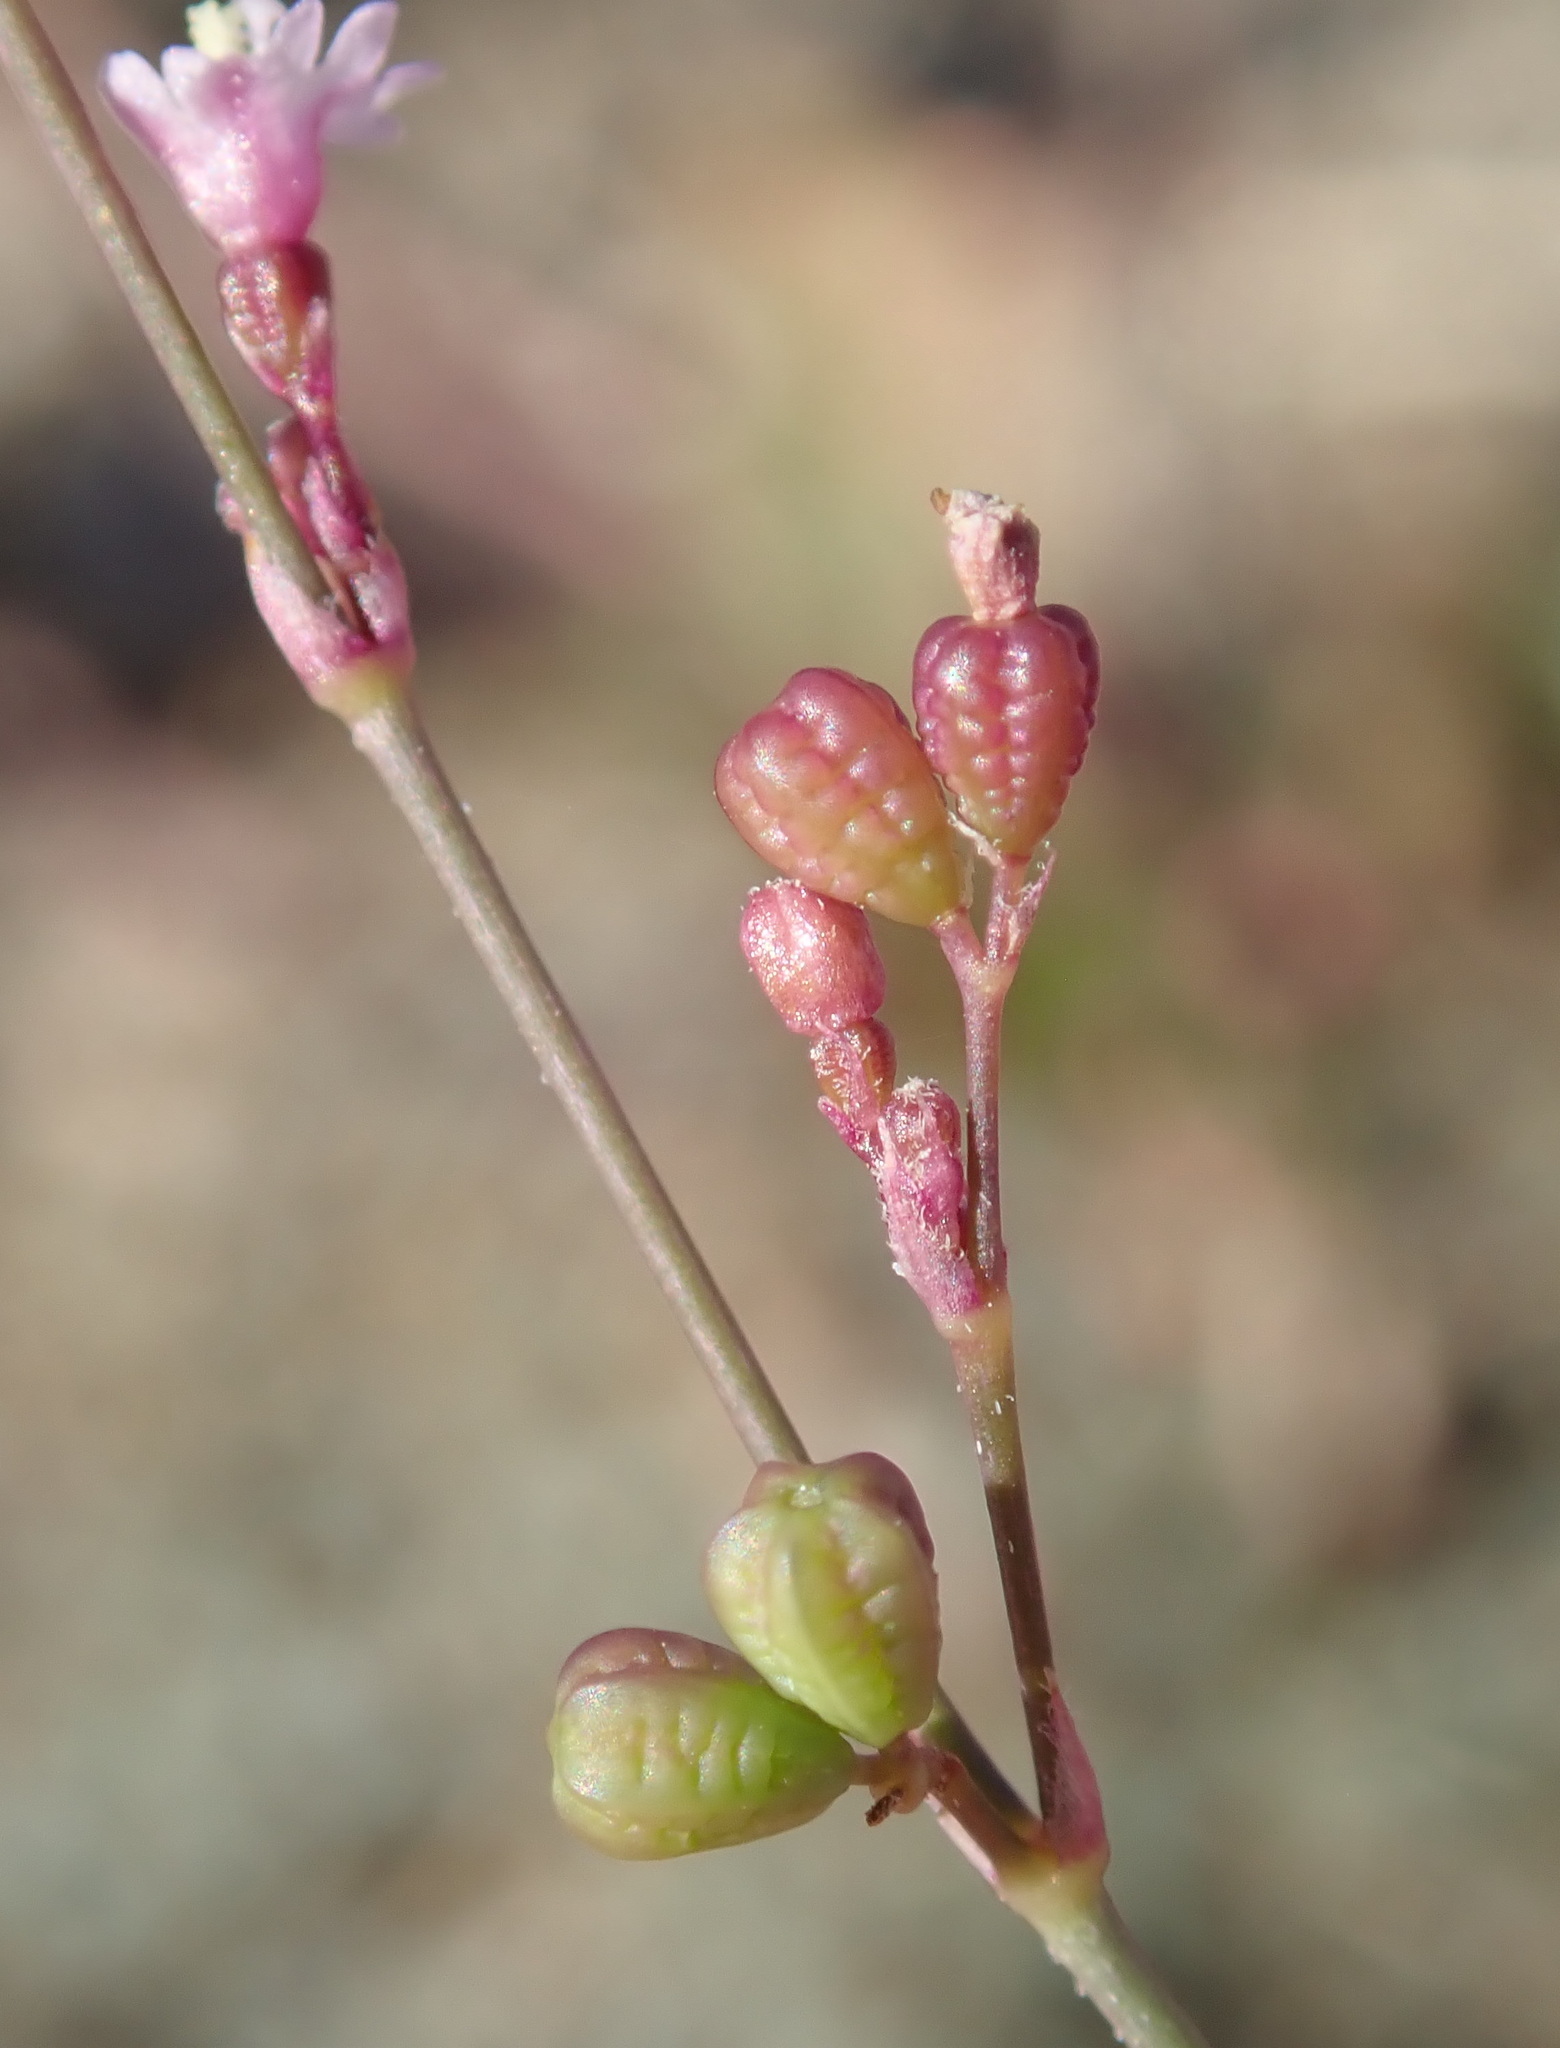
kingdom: Plantae
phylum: Tracheophyta
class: Magnoliopsida
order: Caryophyllales
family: Nyctaginaceae
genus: Boerhavia
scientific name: Boerhavia triquetra
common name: Creeping sticky-stem
